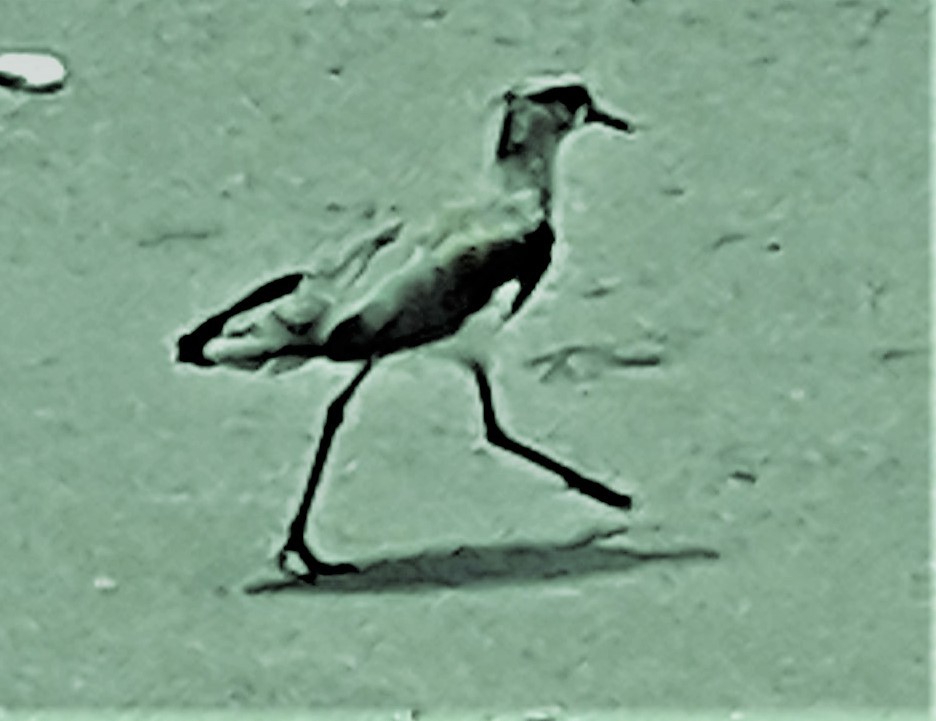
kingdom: Animalia
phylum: Chordata
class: Aves
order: Charadriiformes
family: Charadriidae
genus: Vanellus
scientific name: Vanellus chilensis
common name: Southern lapwing
